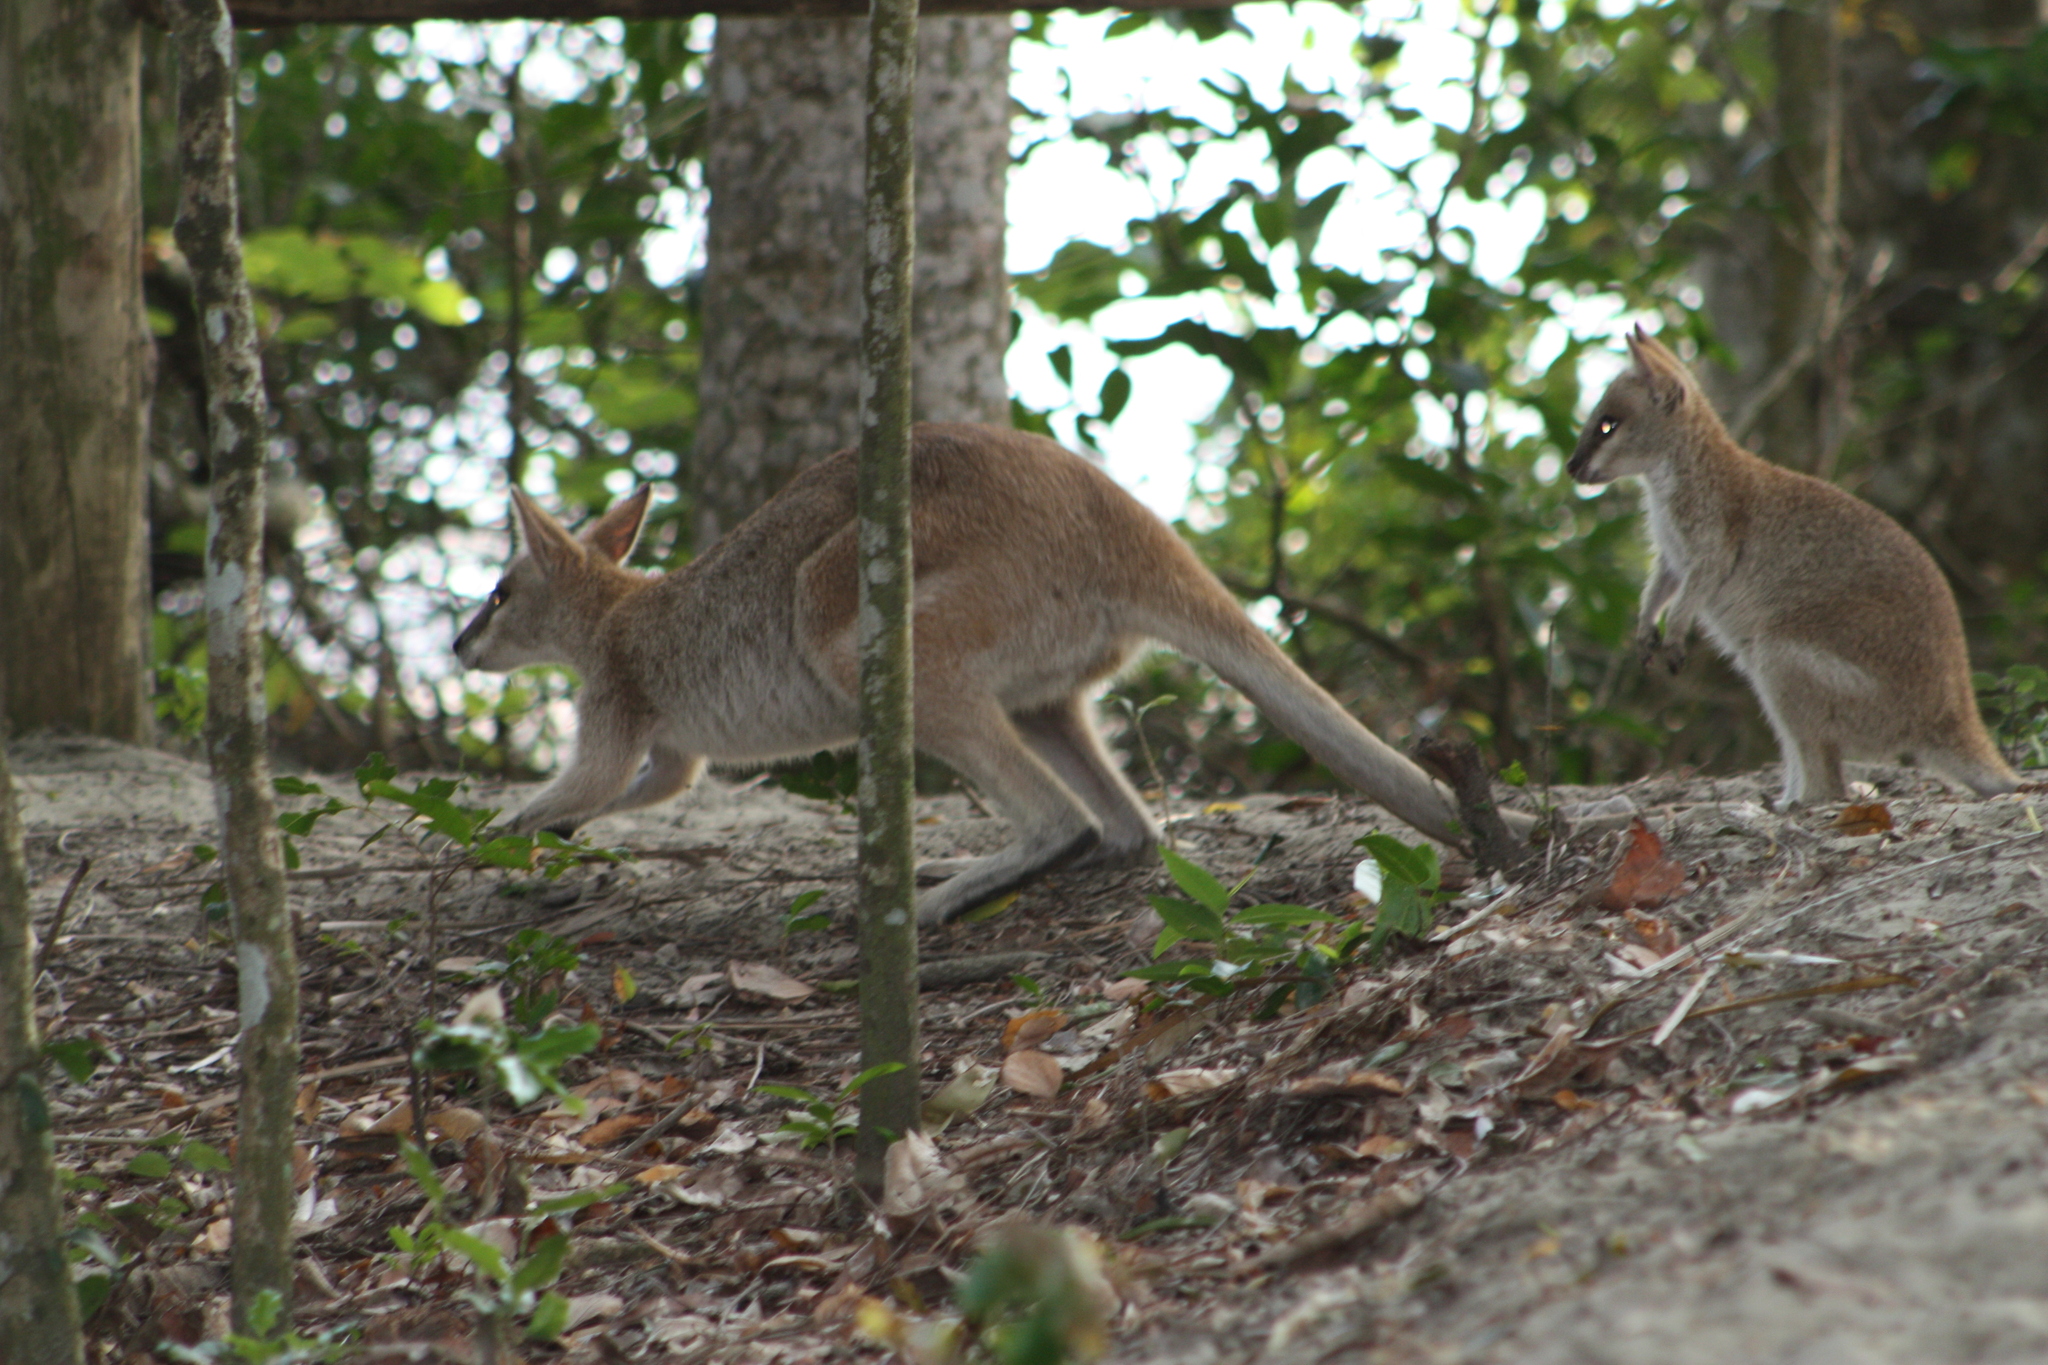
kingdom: Animalia
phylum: Chordata
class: Mammalia
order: Diprotodontia
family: Macropodidae
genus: Macropus
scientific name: Macropus agilis
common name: Agile wallaby
